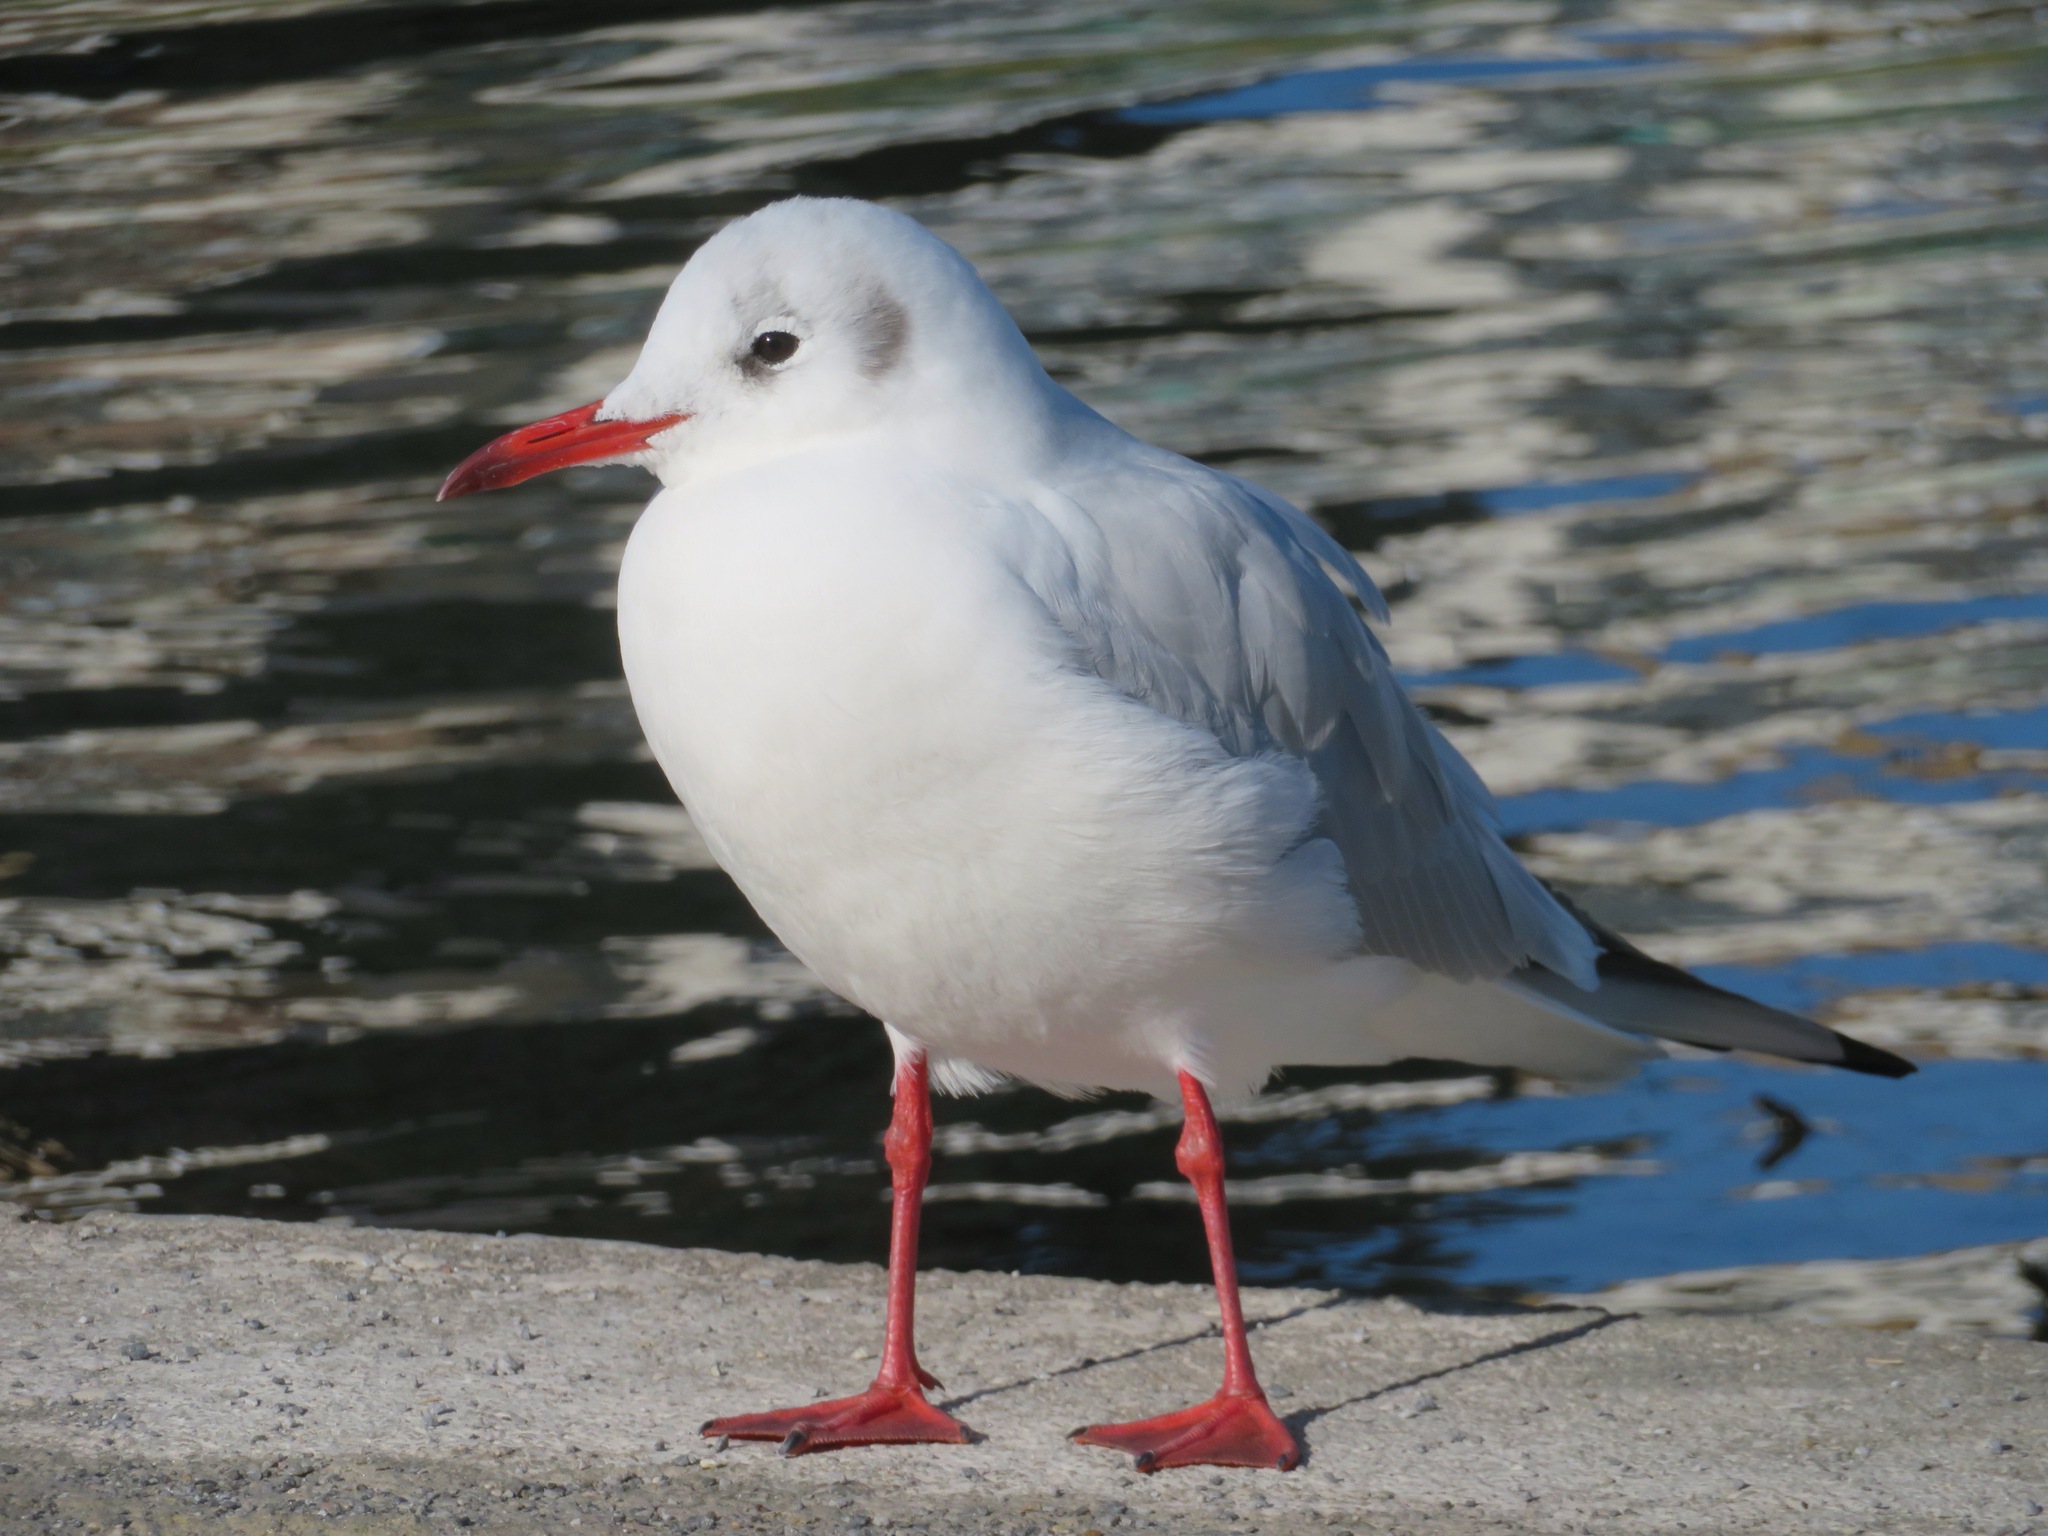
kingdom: Animalia
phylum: Chordata
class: Aves
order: Charadriiformes
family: Laridae
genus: Chroicocephalus
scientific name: Chroicocephalus ridibundus
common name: Black-headed gull
